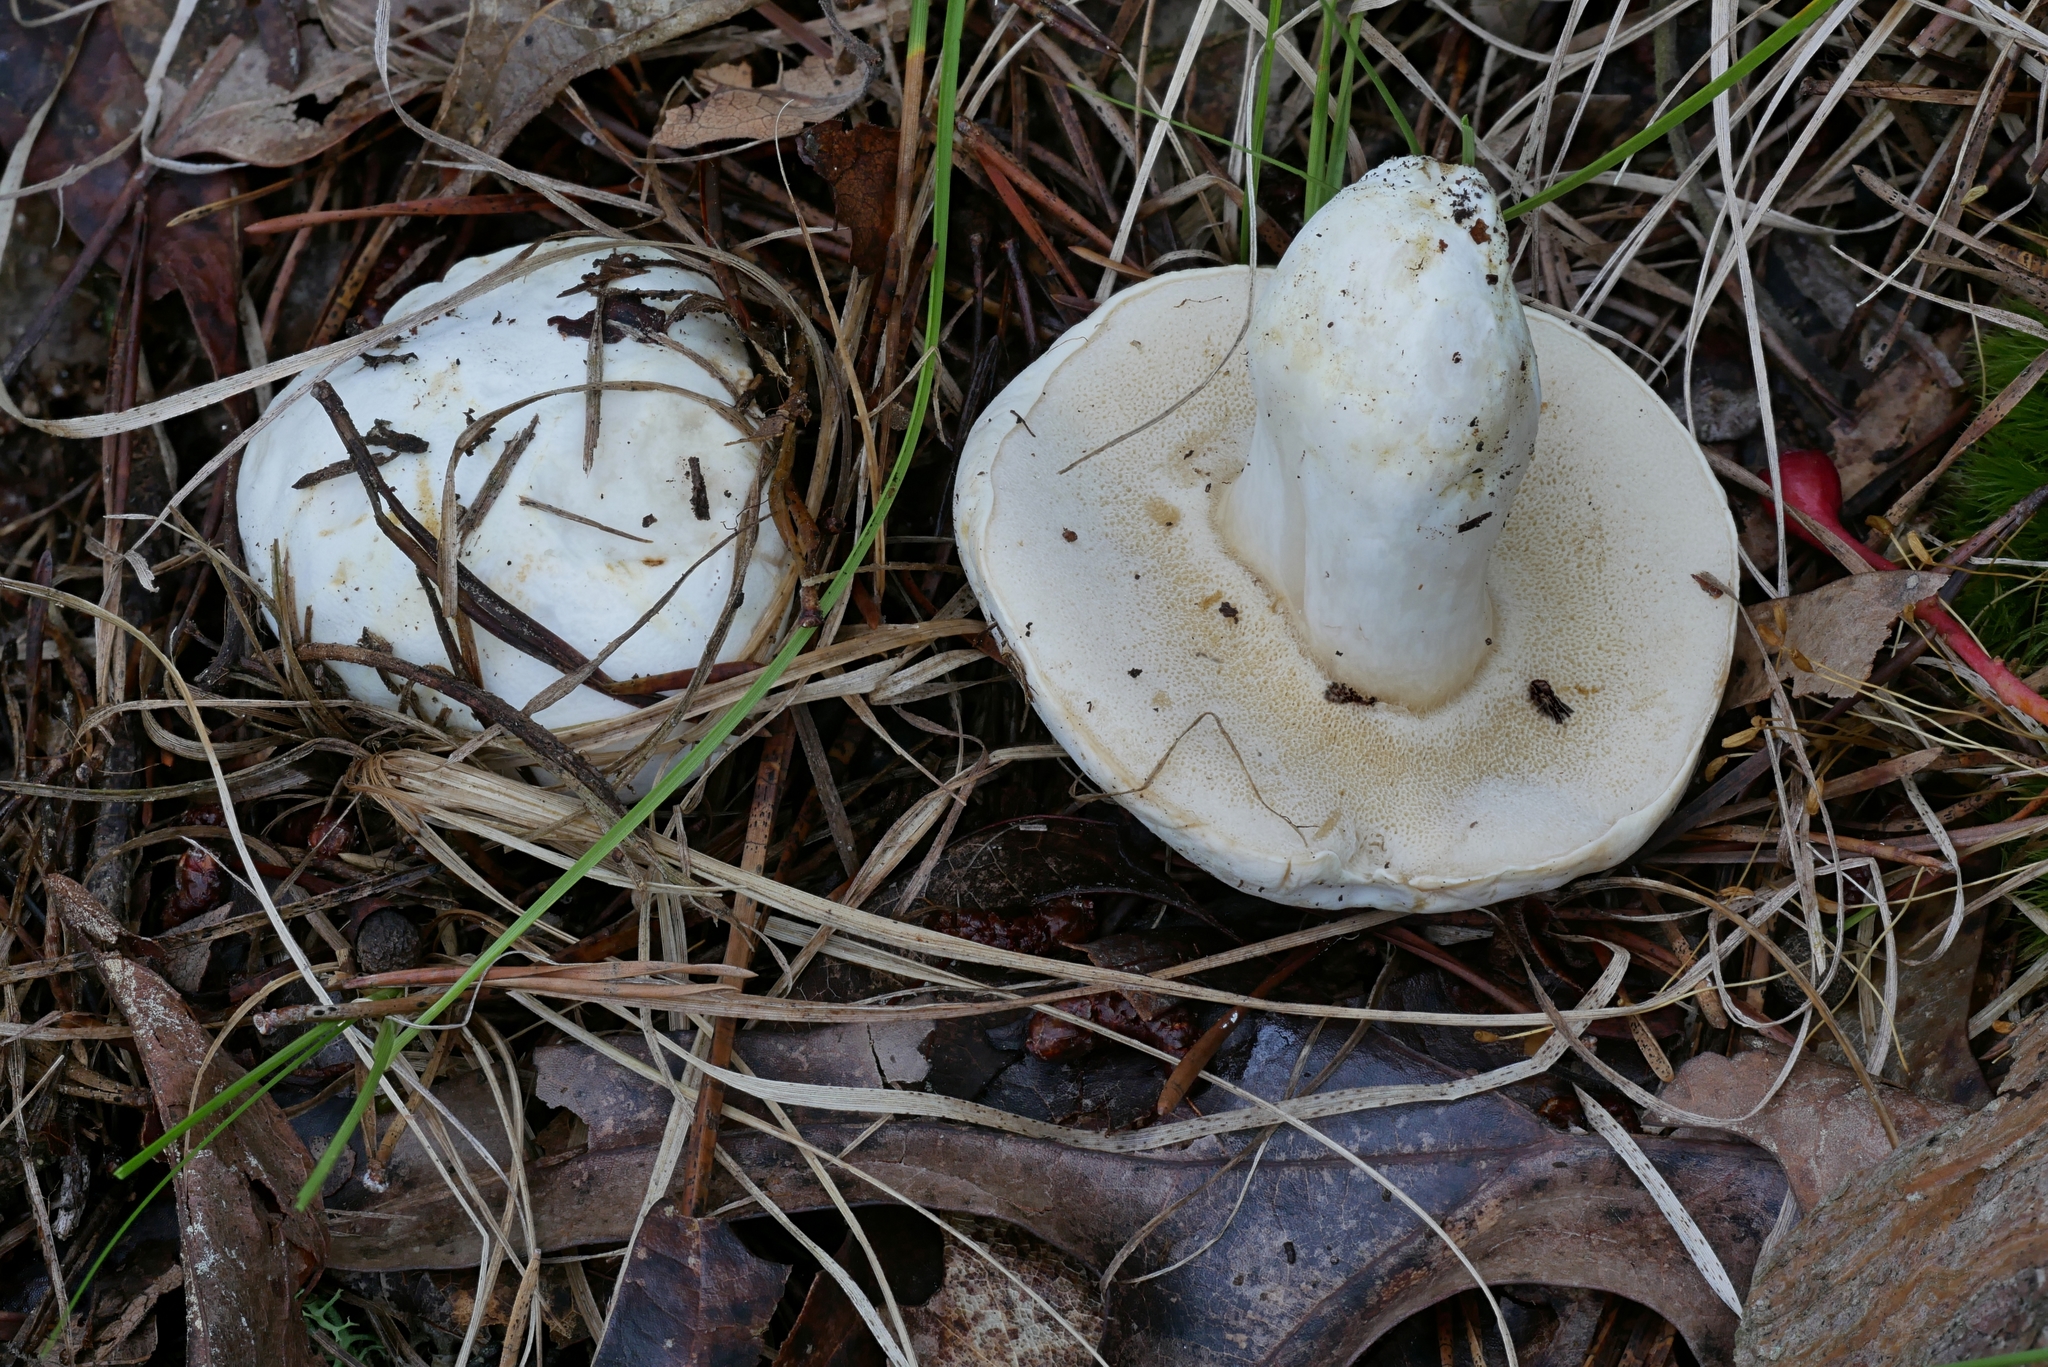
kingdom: Fungi
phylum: Basidiomycota
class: Agaricomycetes
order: Boletales
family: Boletaceae
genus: Xanthoconium
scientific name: Xanthoconium stramineum
